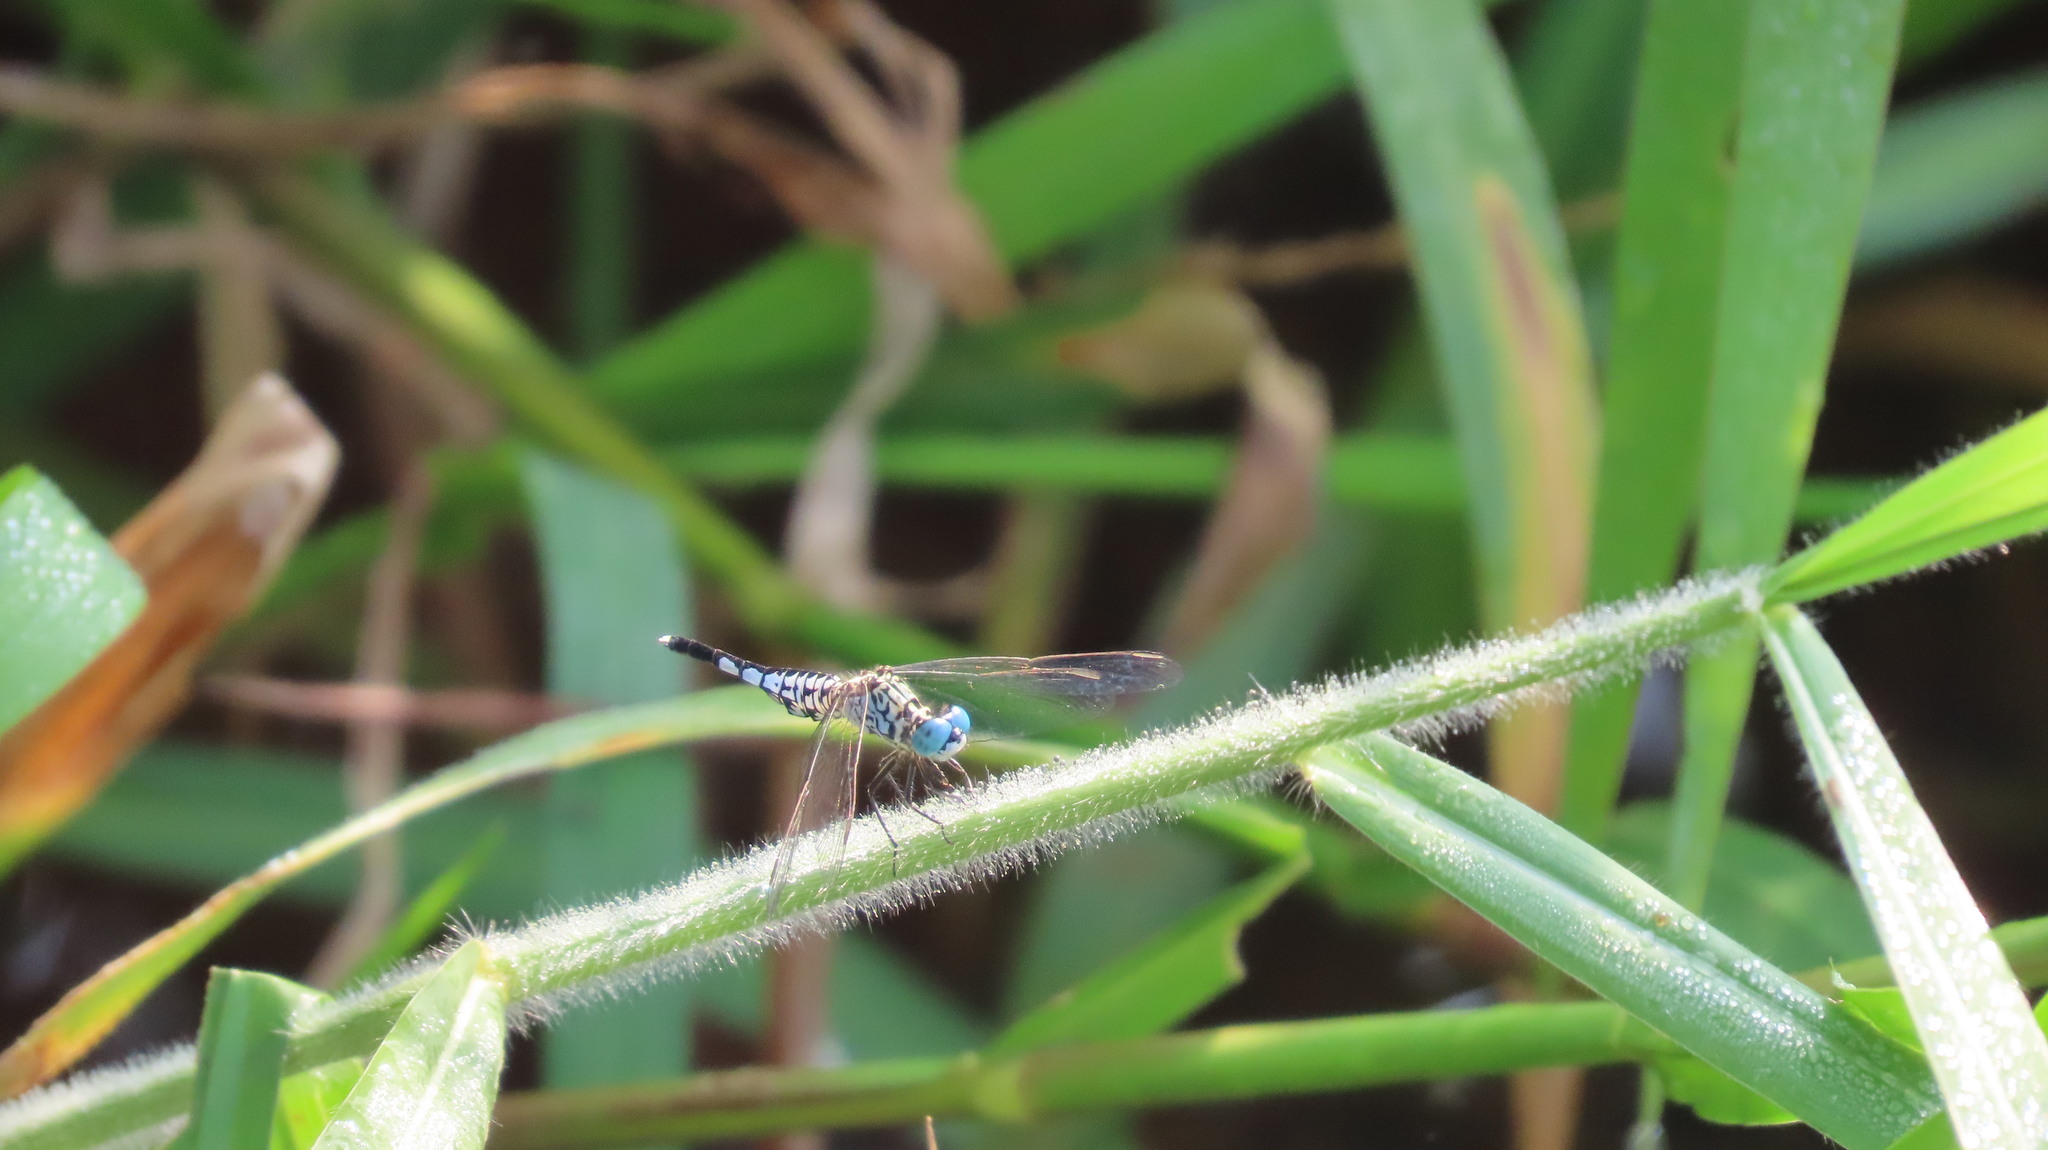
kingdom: Animalia
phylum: Arthropoda
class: Insecta
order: Odonata
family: Libellulidae
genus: Acisoma
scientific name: Acisoma panorpoides
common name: Asian pintail
